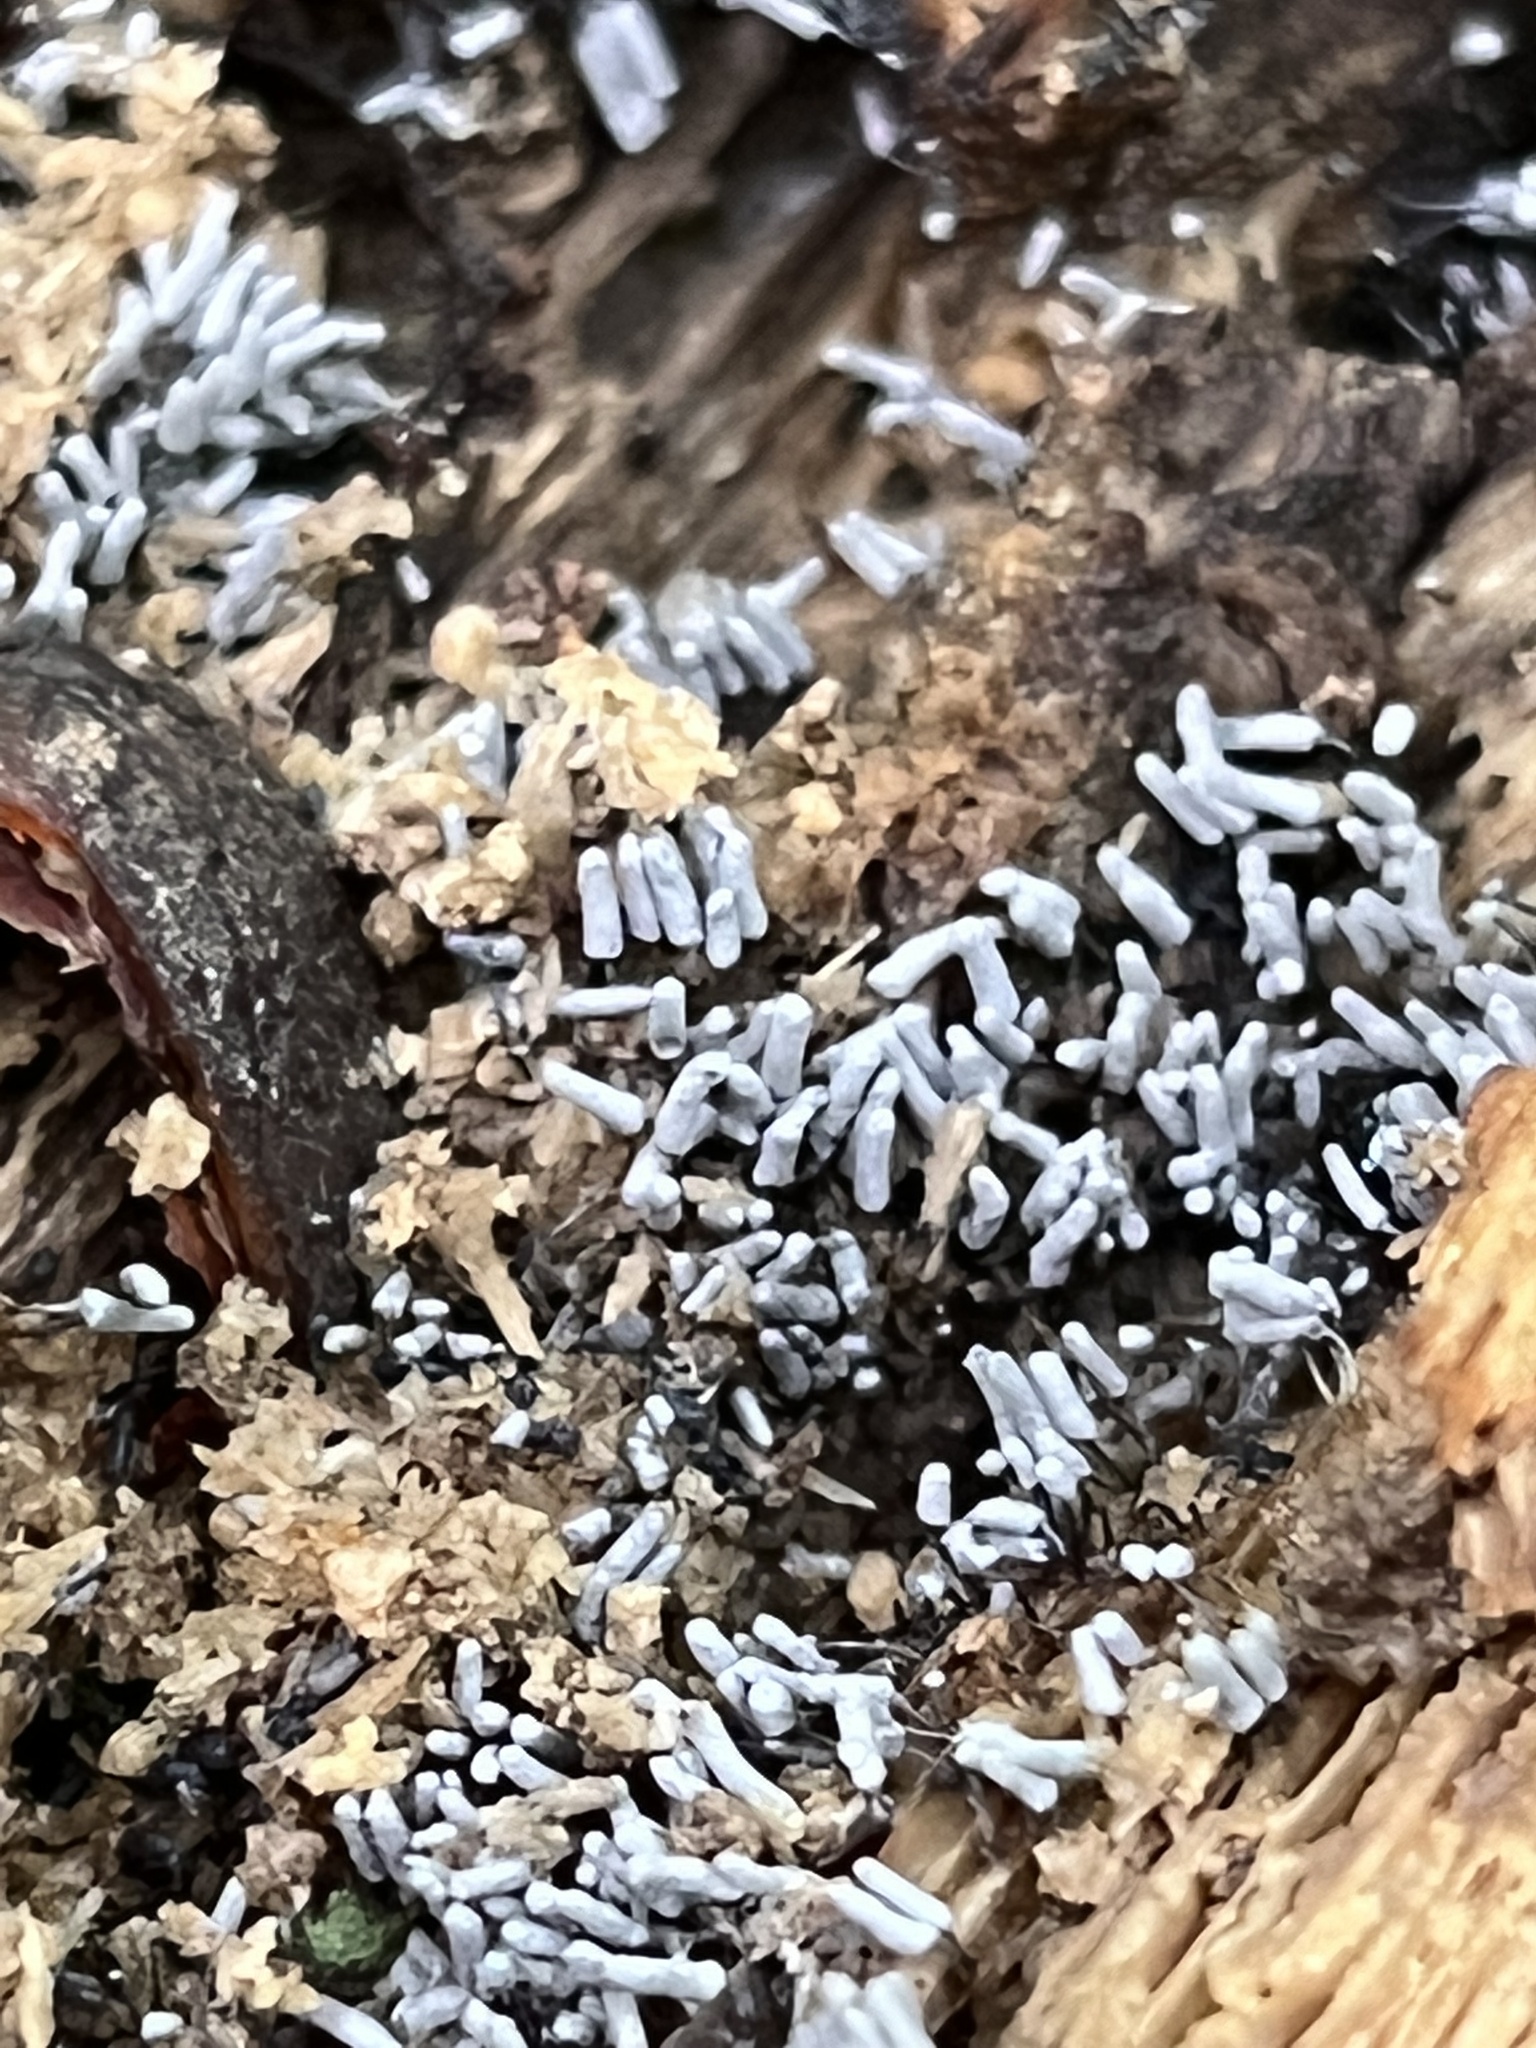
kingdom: Protozoa
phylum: Mycetozoa
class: Myxomycetes
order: Trichiales
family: Arcyriaceae
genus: Arcyria
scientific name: Arcyria cinerea
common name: White carnival candy slime mold
